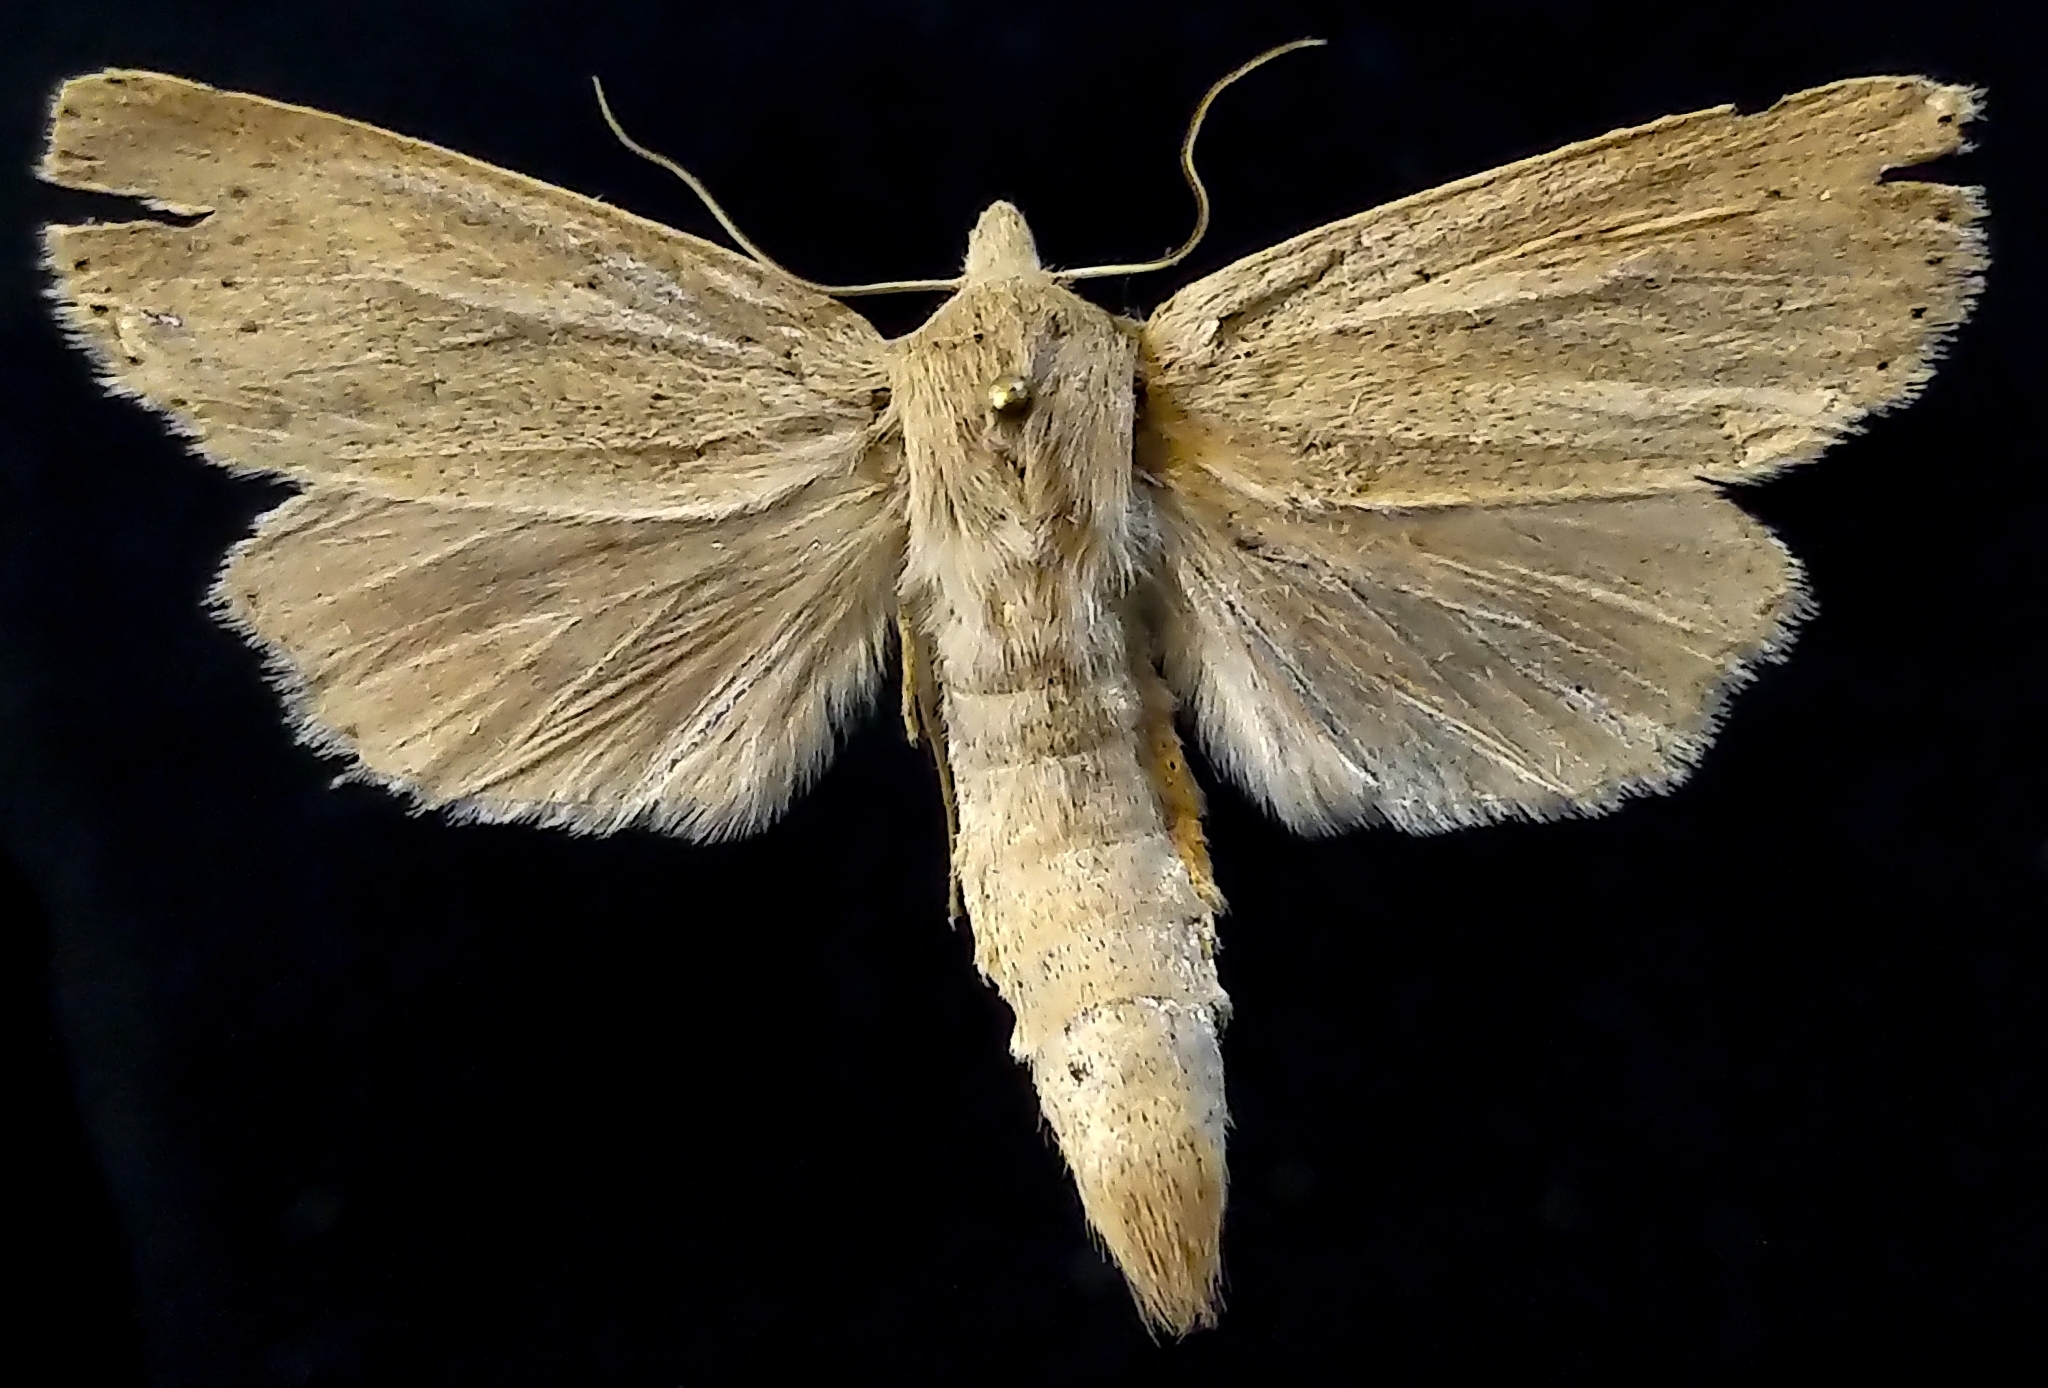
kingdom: Animalia
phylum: Arthropoda
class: Insecta
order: Lepidoptera
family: Noctuidae
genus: Globia
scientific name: Globia oblonga
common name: Oblong sedge borer moth
